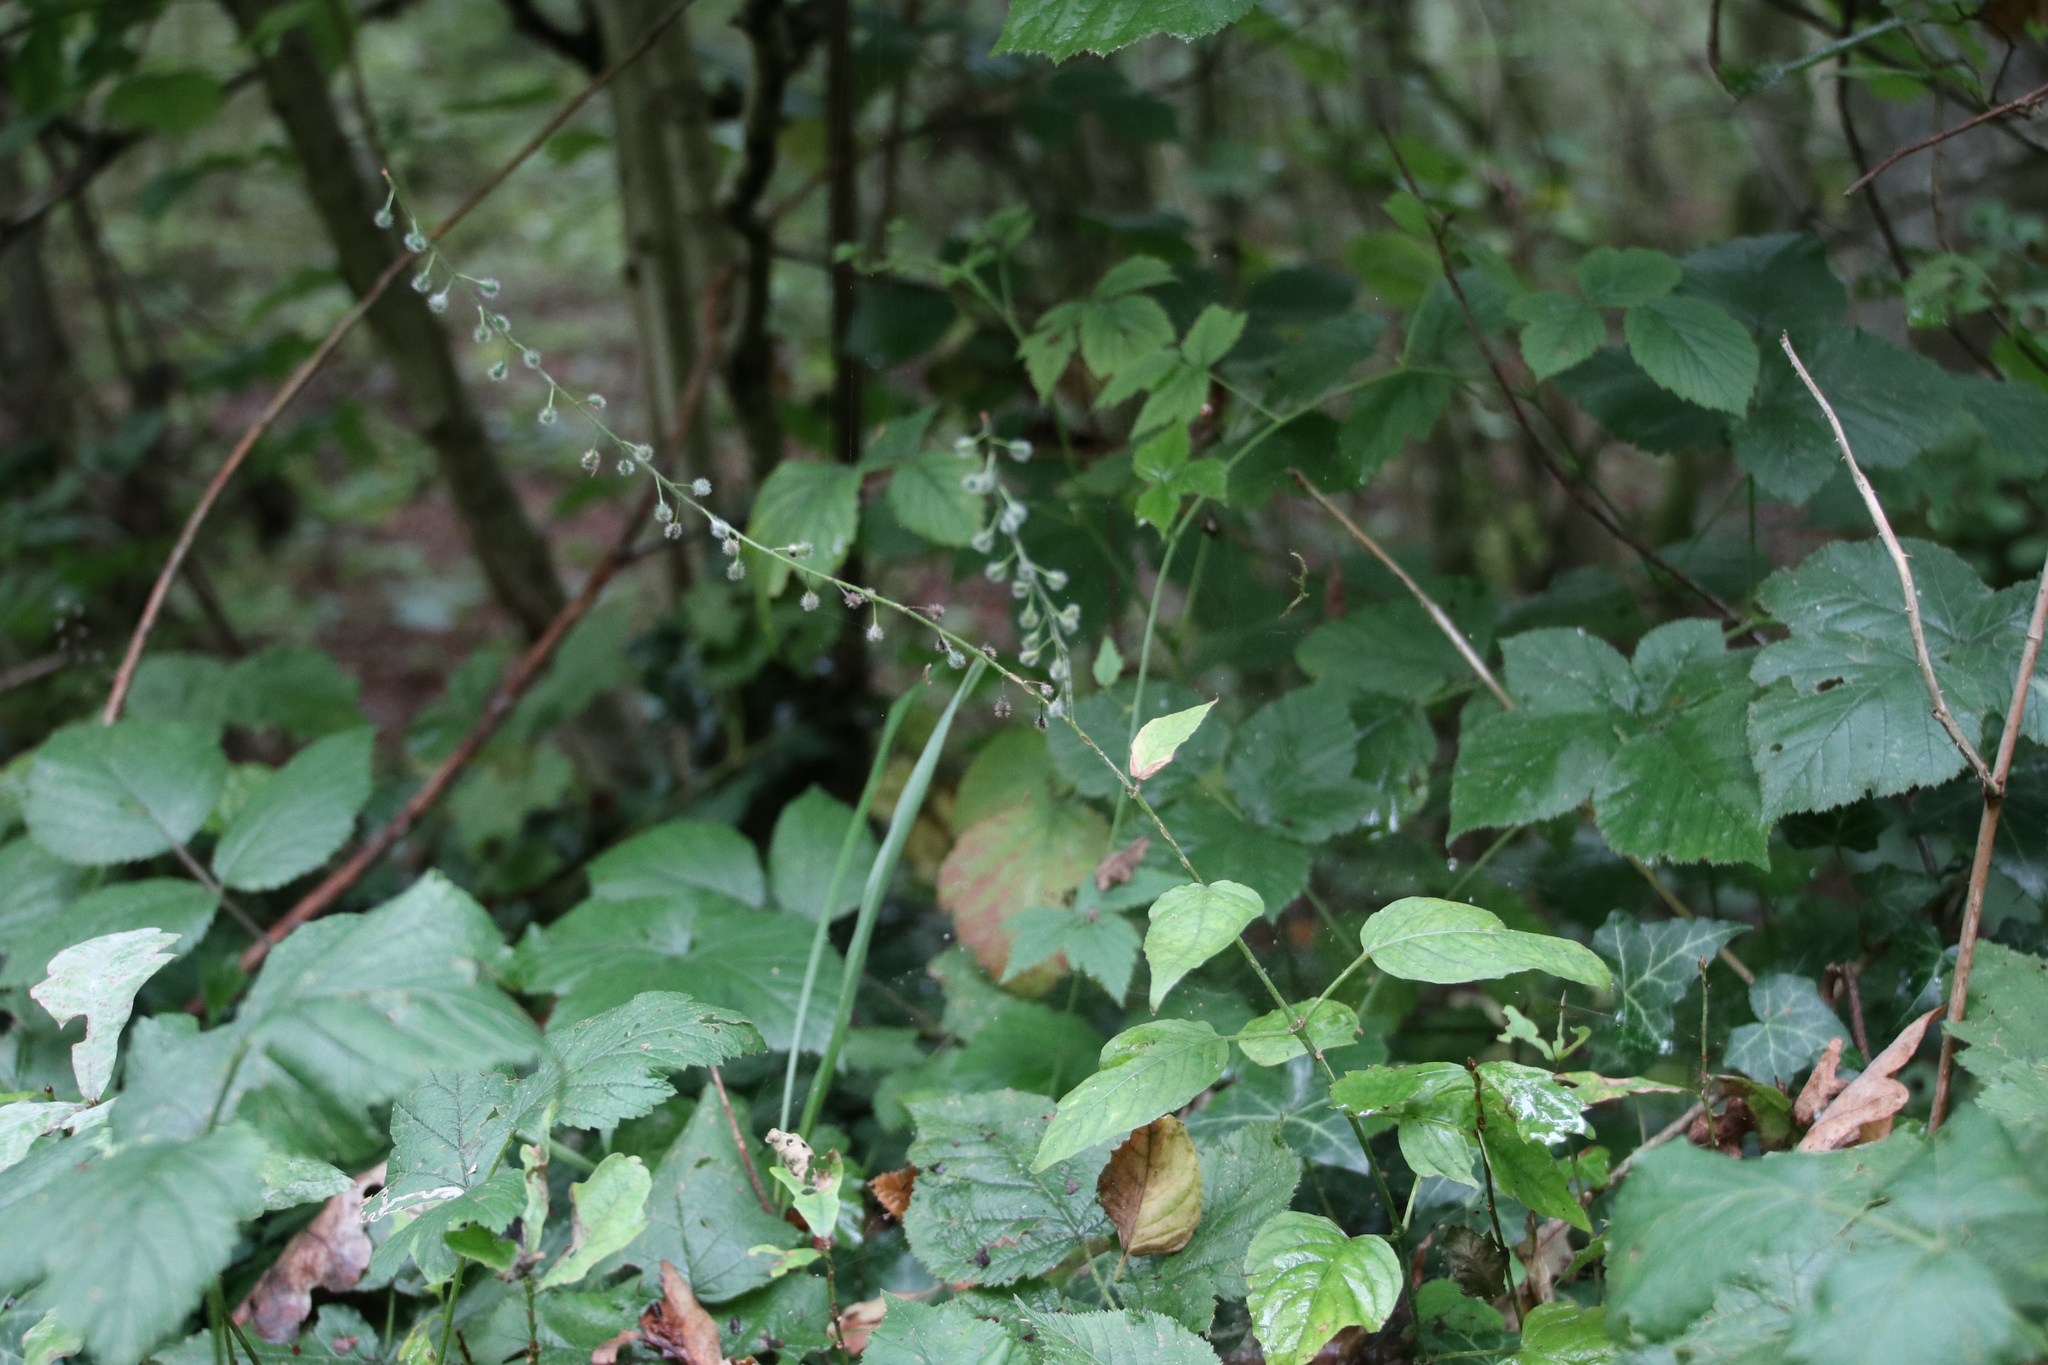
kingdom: Plantae
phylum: Tracheophyta
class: Magnoliopsida
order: Myrtales
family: Onagraceae
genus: Circaea
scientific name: Circaea lutetiana
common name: Enchanter's-nightshade
